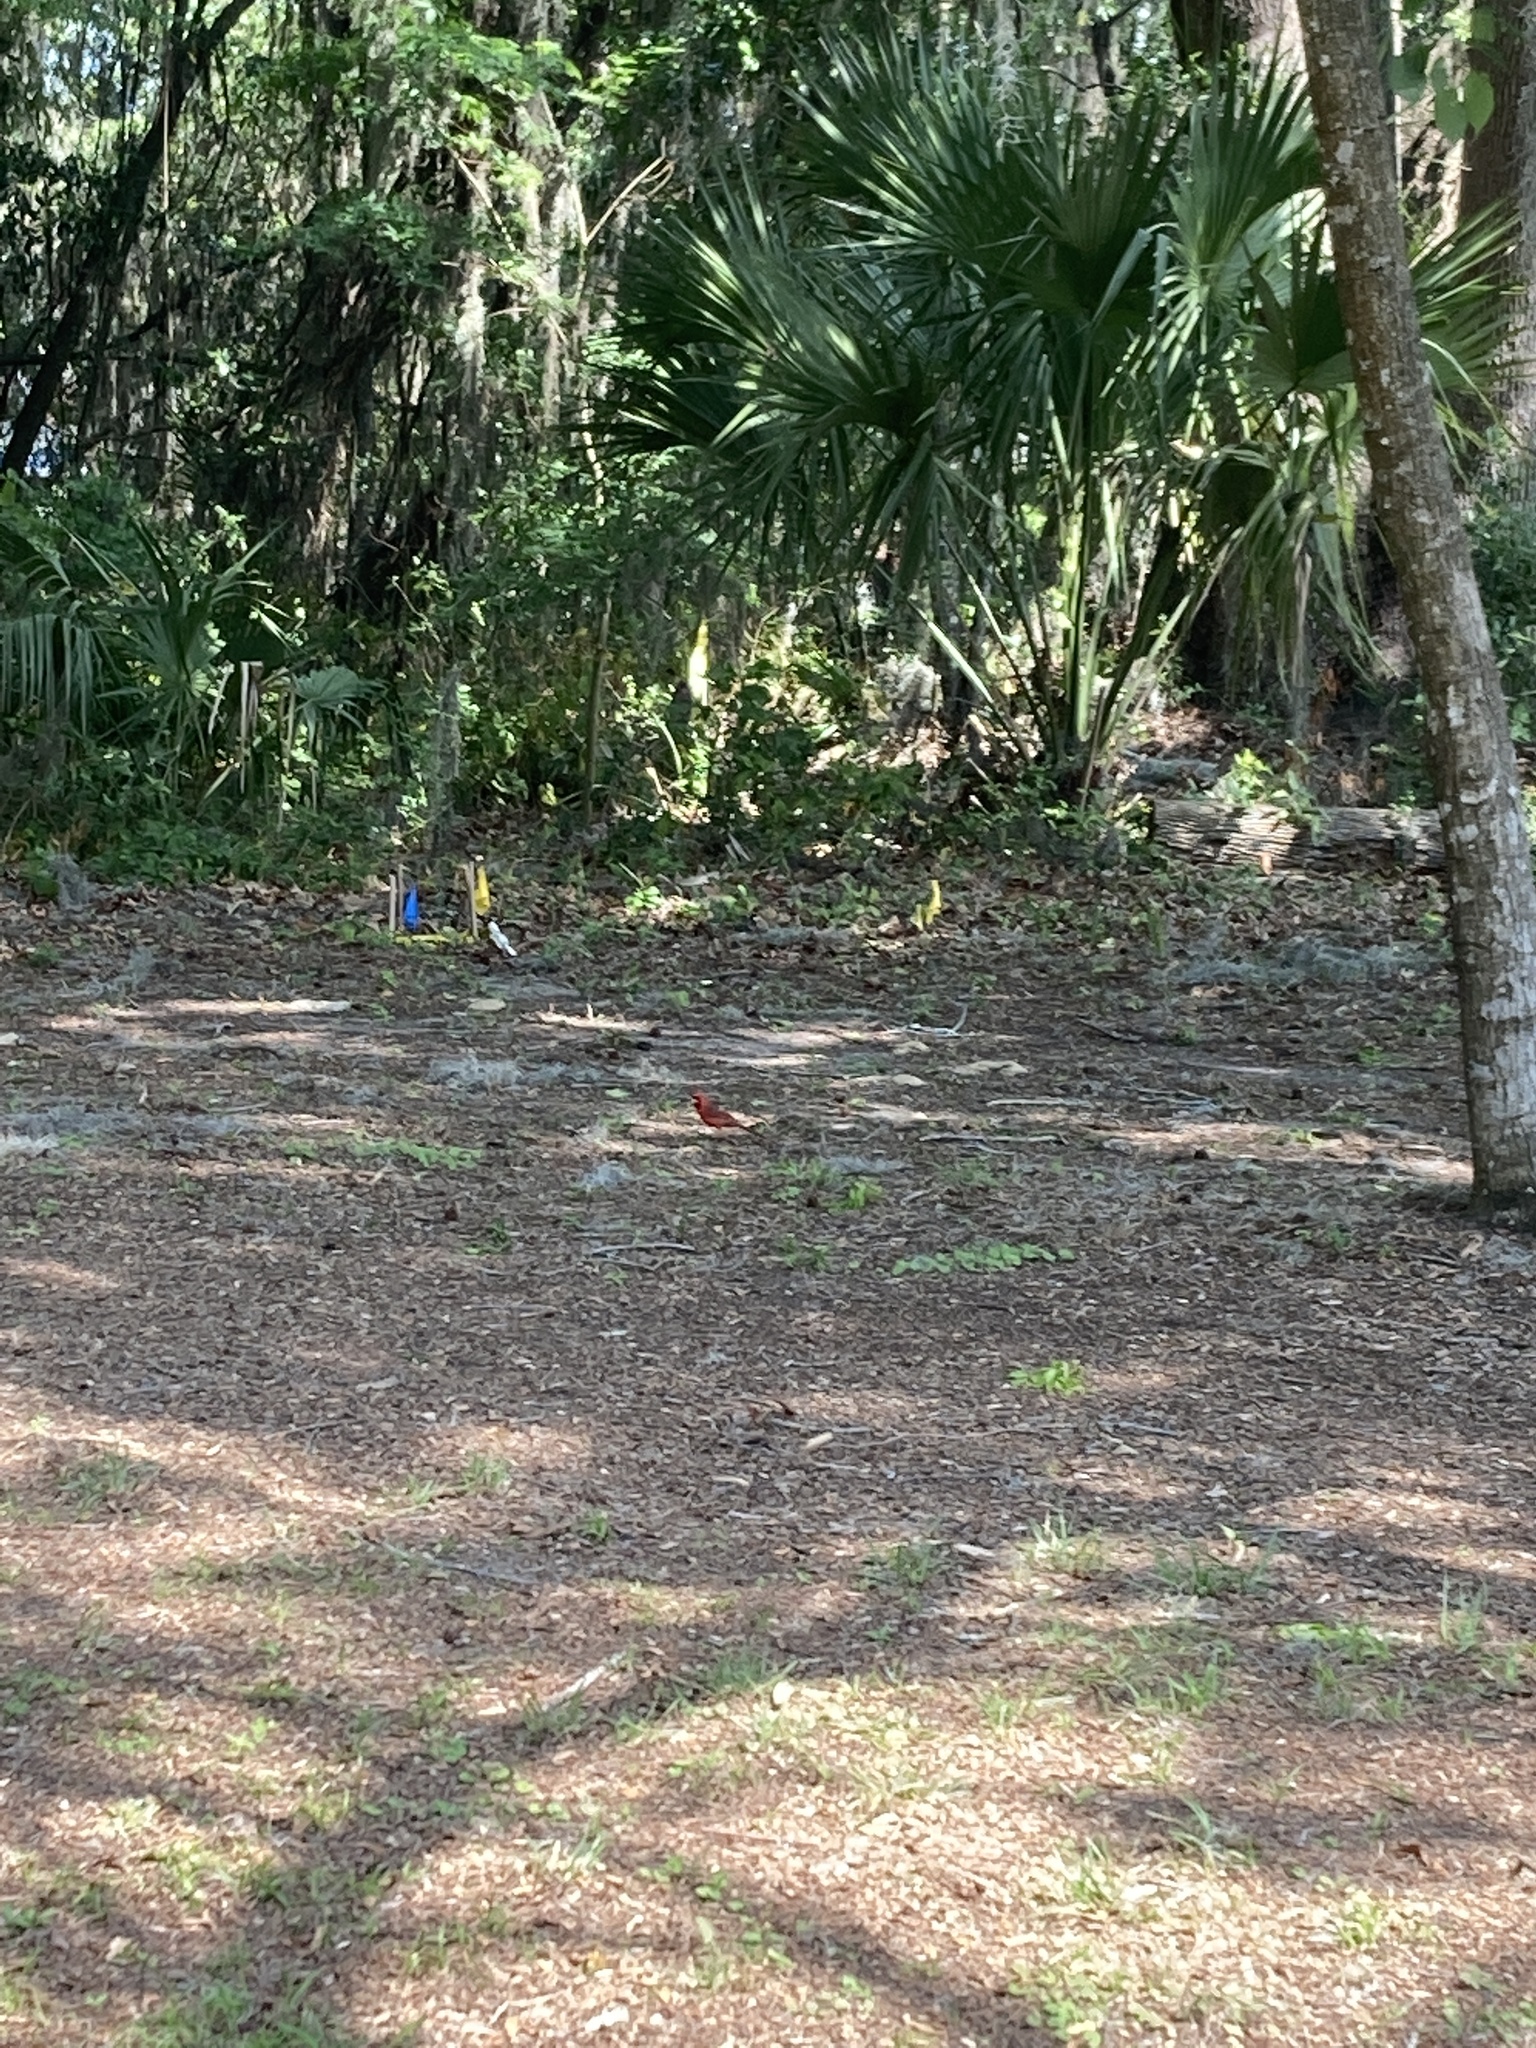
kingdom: Animalia
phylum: Chordata
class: Aves
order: Passeriformes
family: Cardinalidae
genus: Cardinalis
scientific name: Cardinalis cardinalis
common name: Northern cardinal
